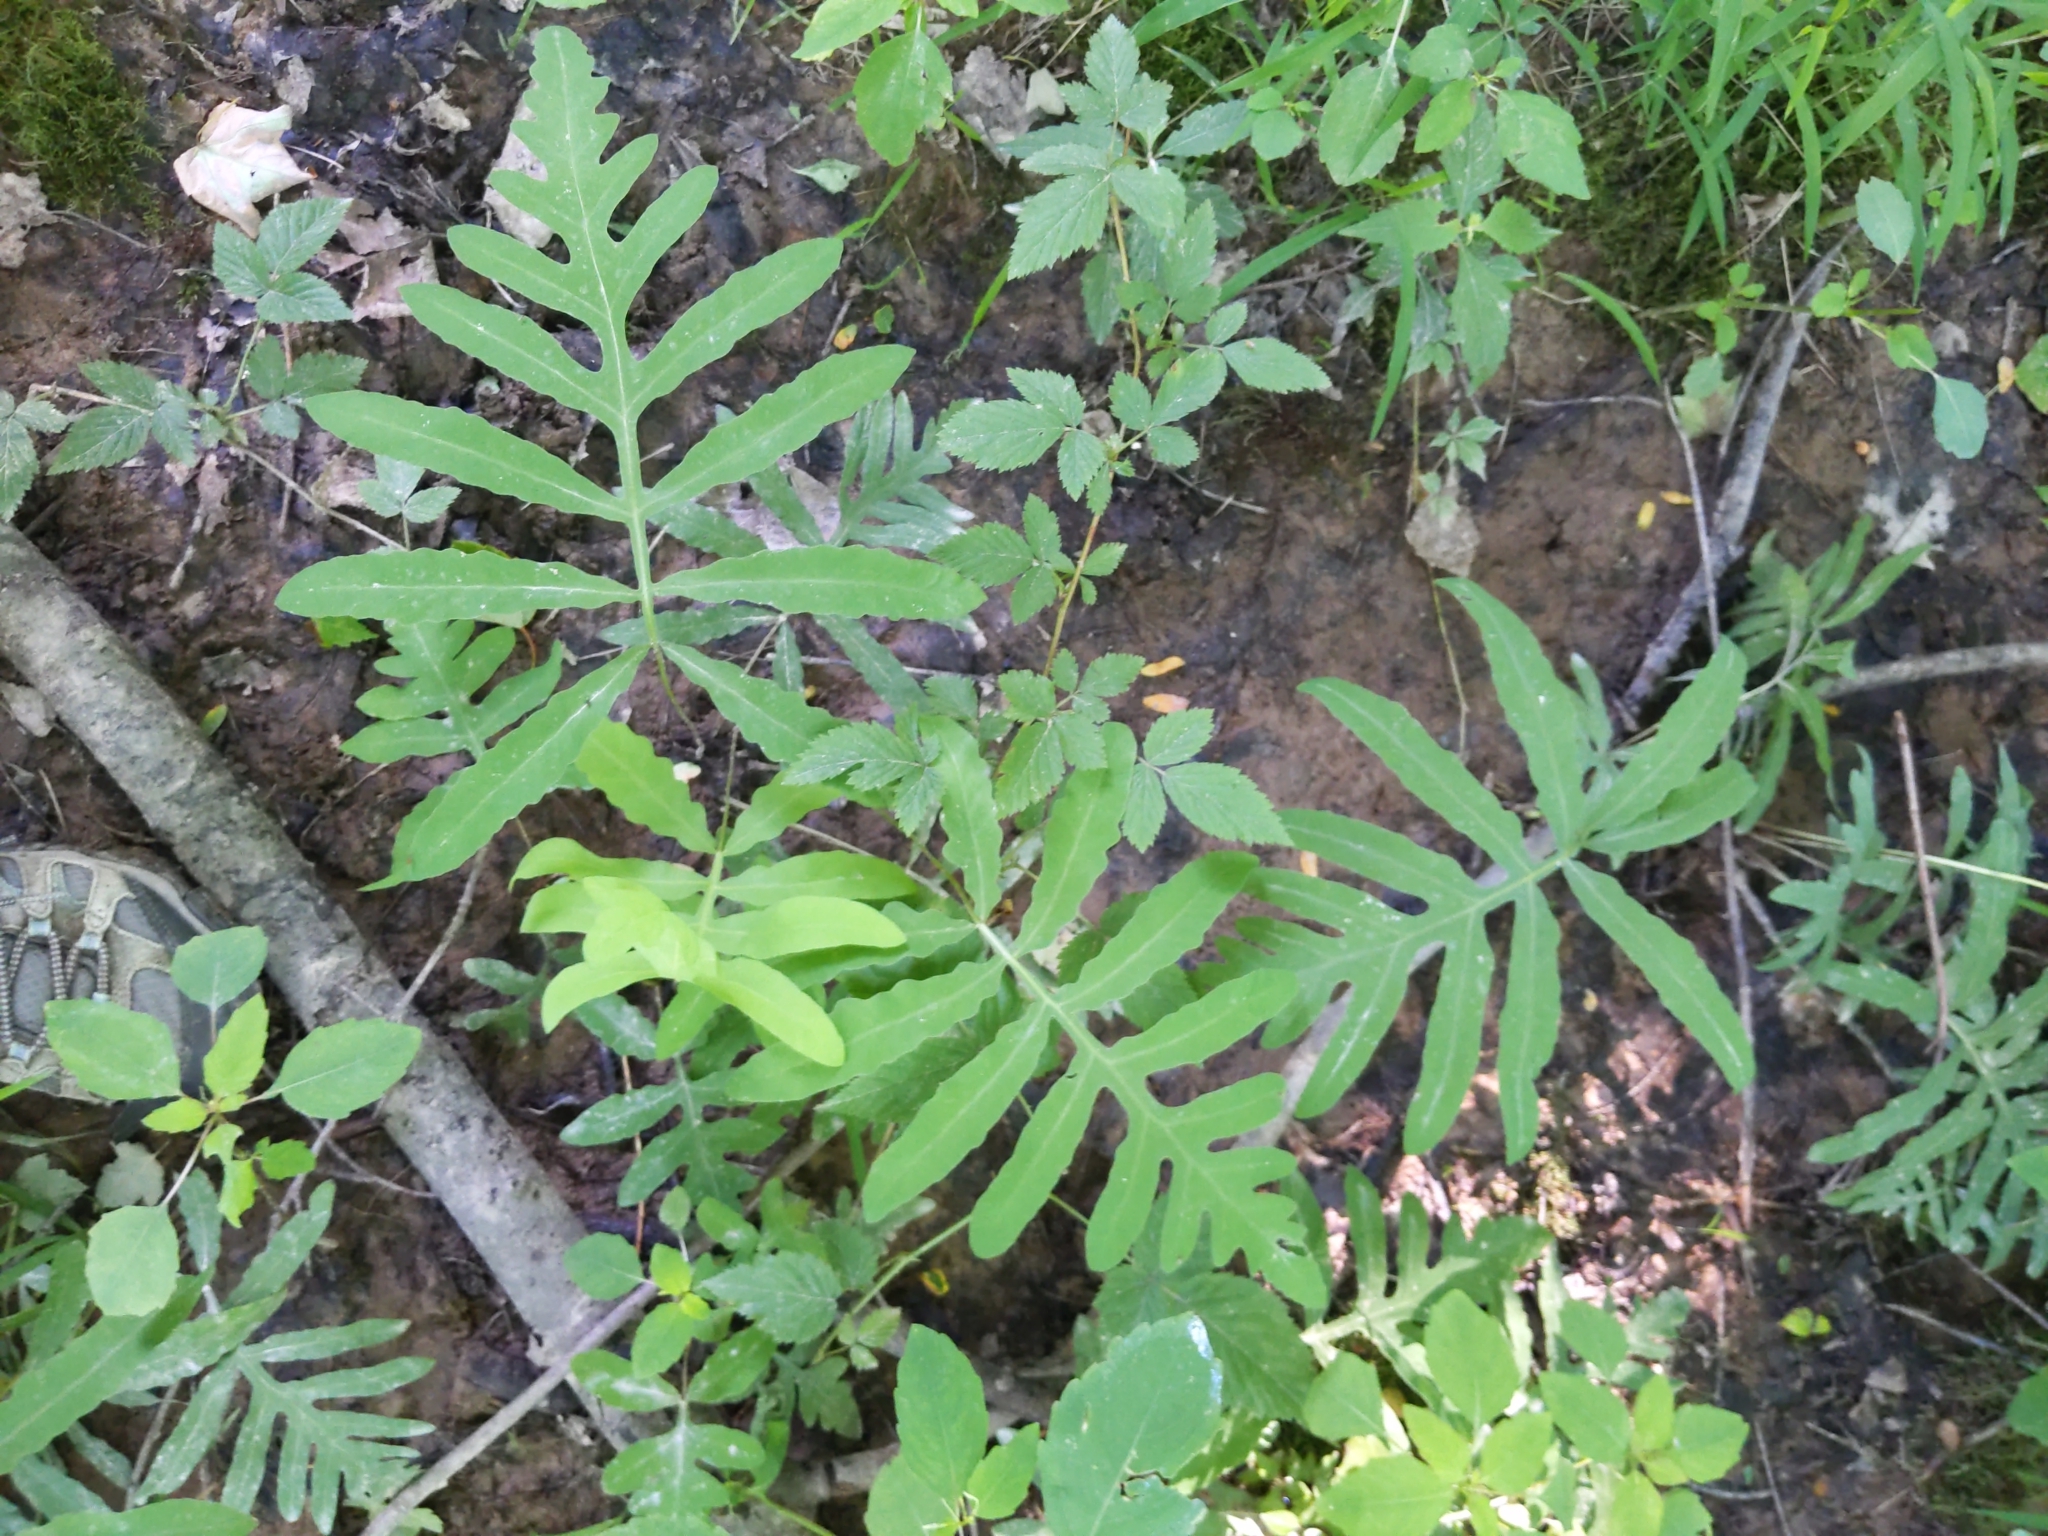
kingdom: Plantae
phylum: Tracheophyta
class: Polypodiopsida
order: Polypodiales
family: Onocleaceae
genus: Onoclea
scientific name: Onoclea sensibilis
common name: Sensitive fern
